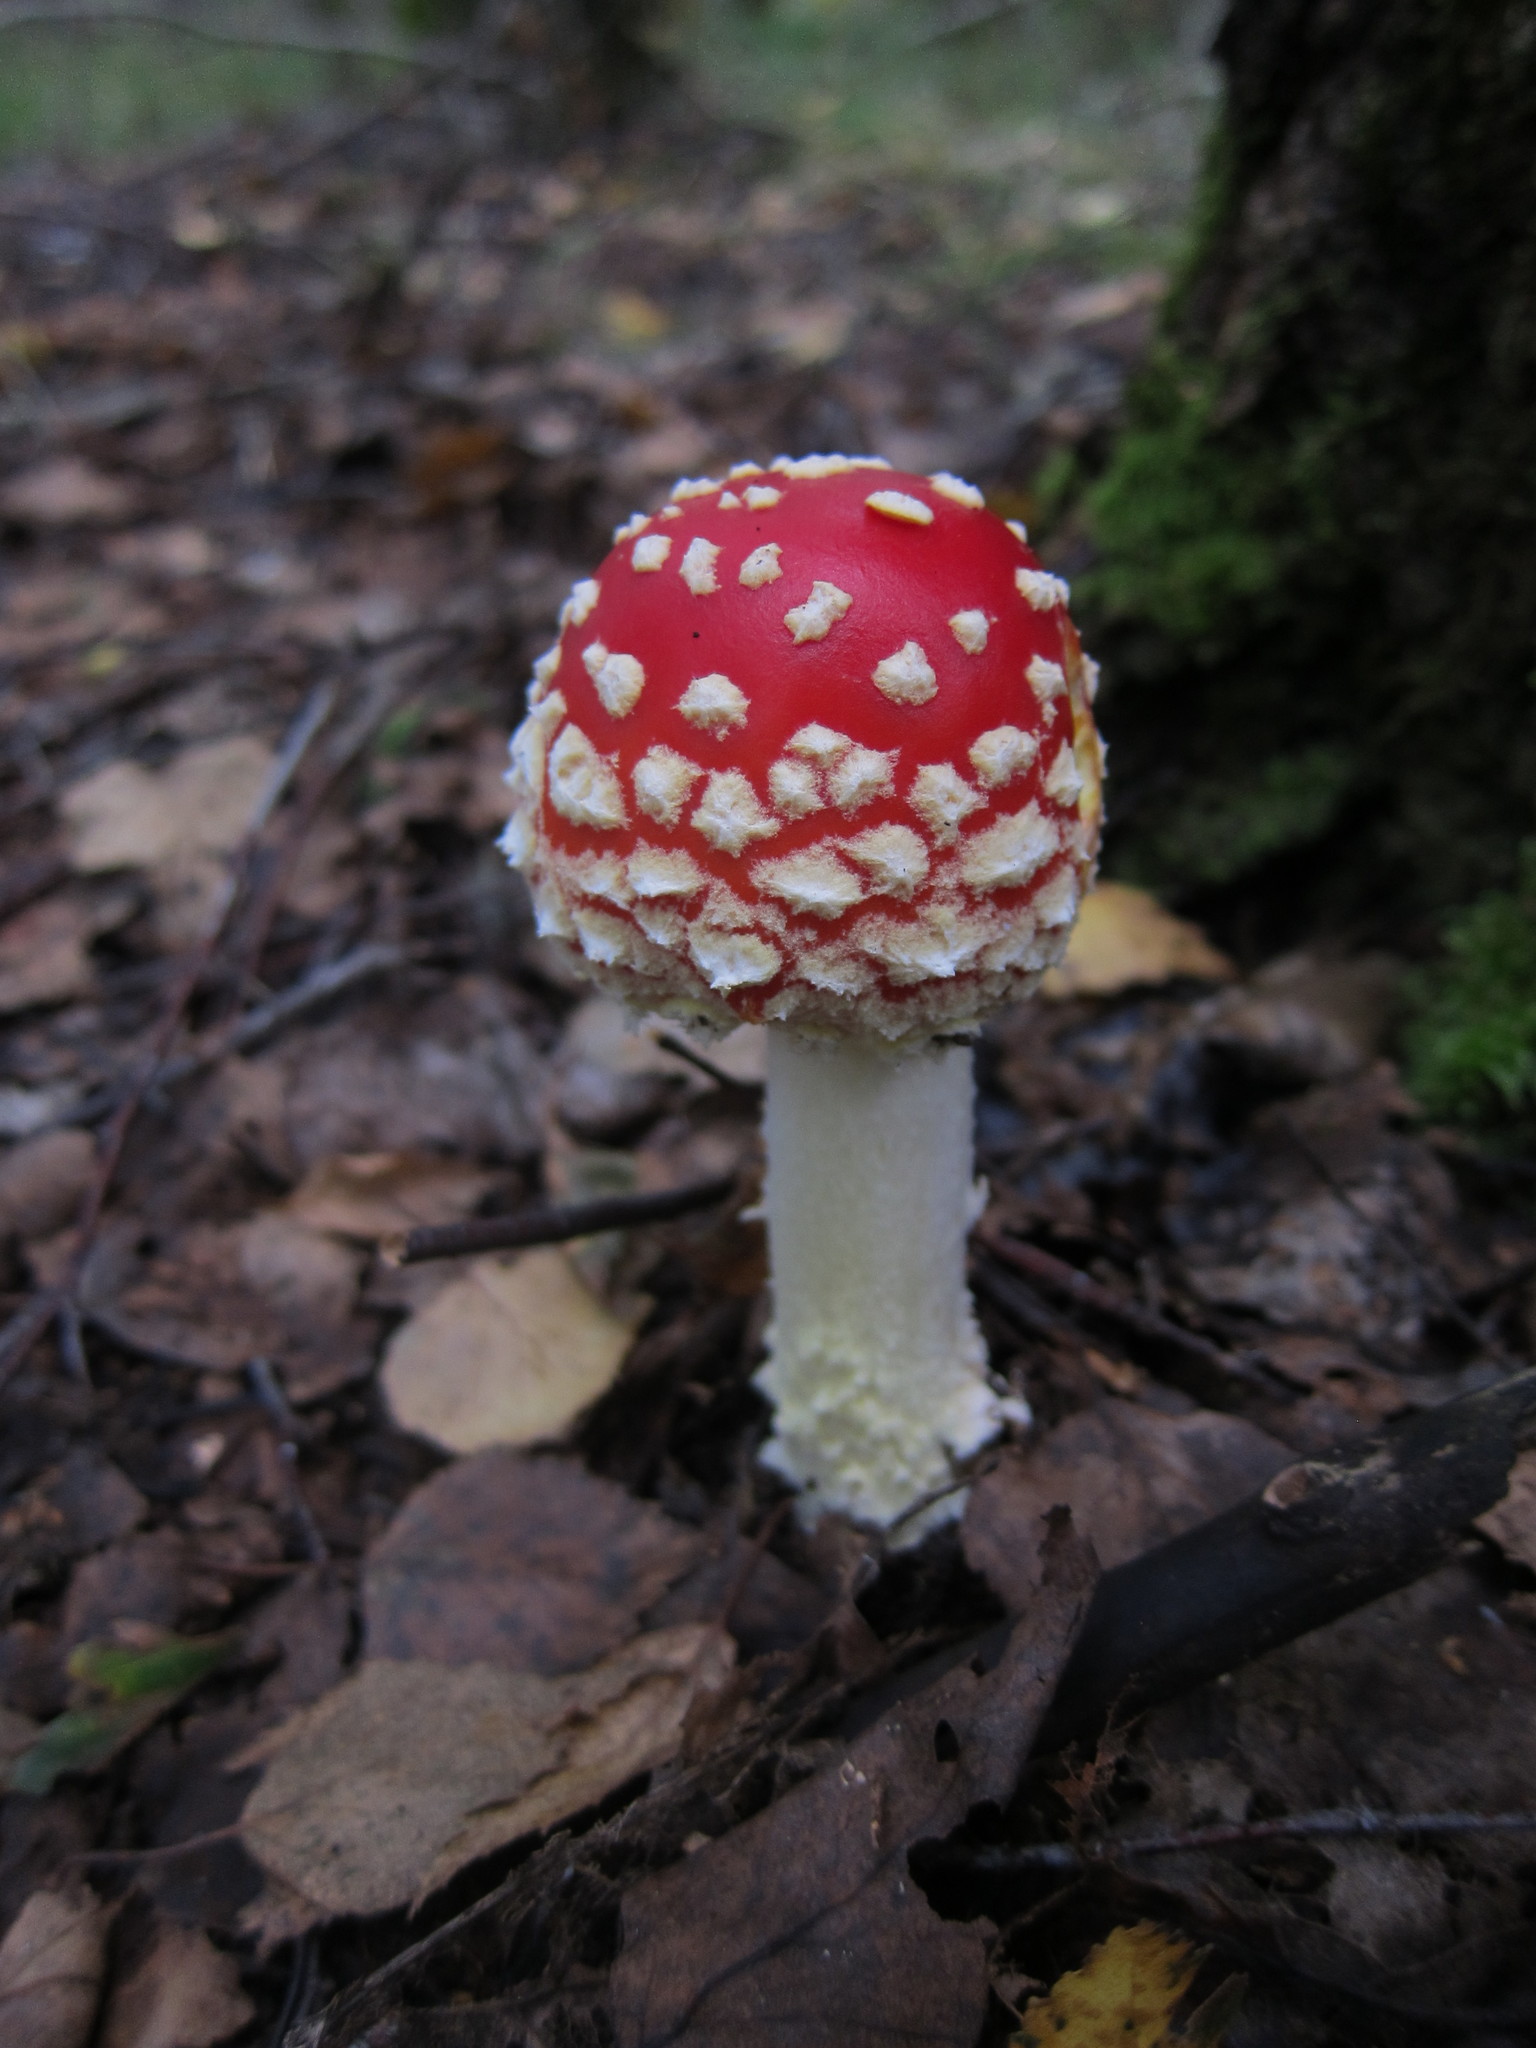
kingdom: Fungi
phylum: Basidiomycota
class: Agaricomycetes
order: Agaricales
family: Amanitaceae
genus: Amanita
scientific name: Amanita muscaria
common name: Fly agaric
